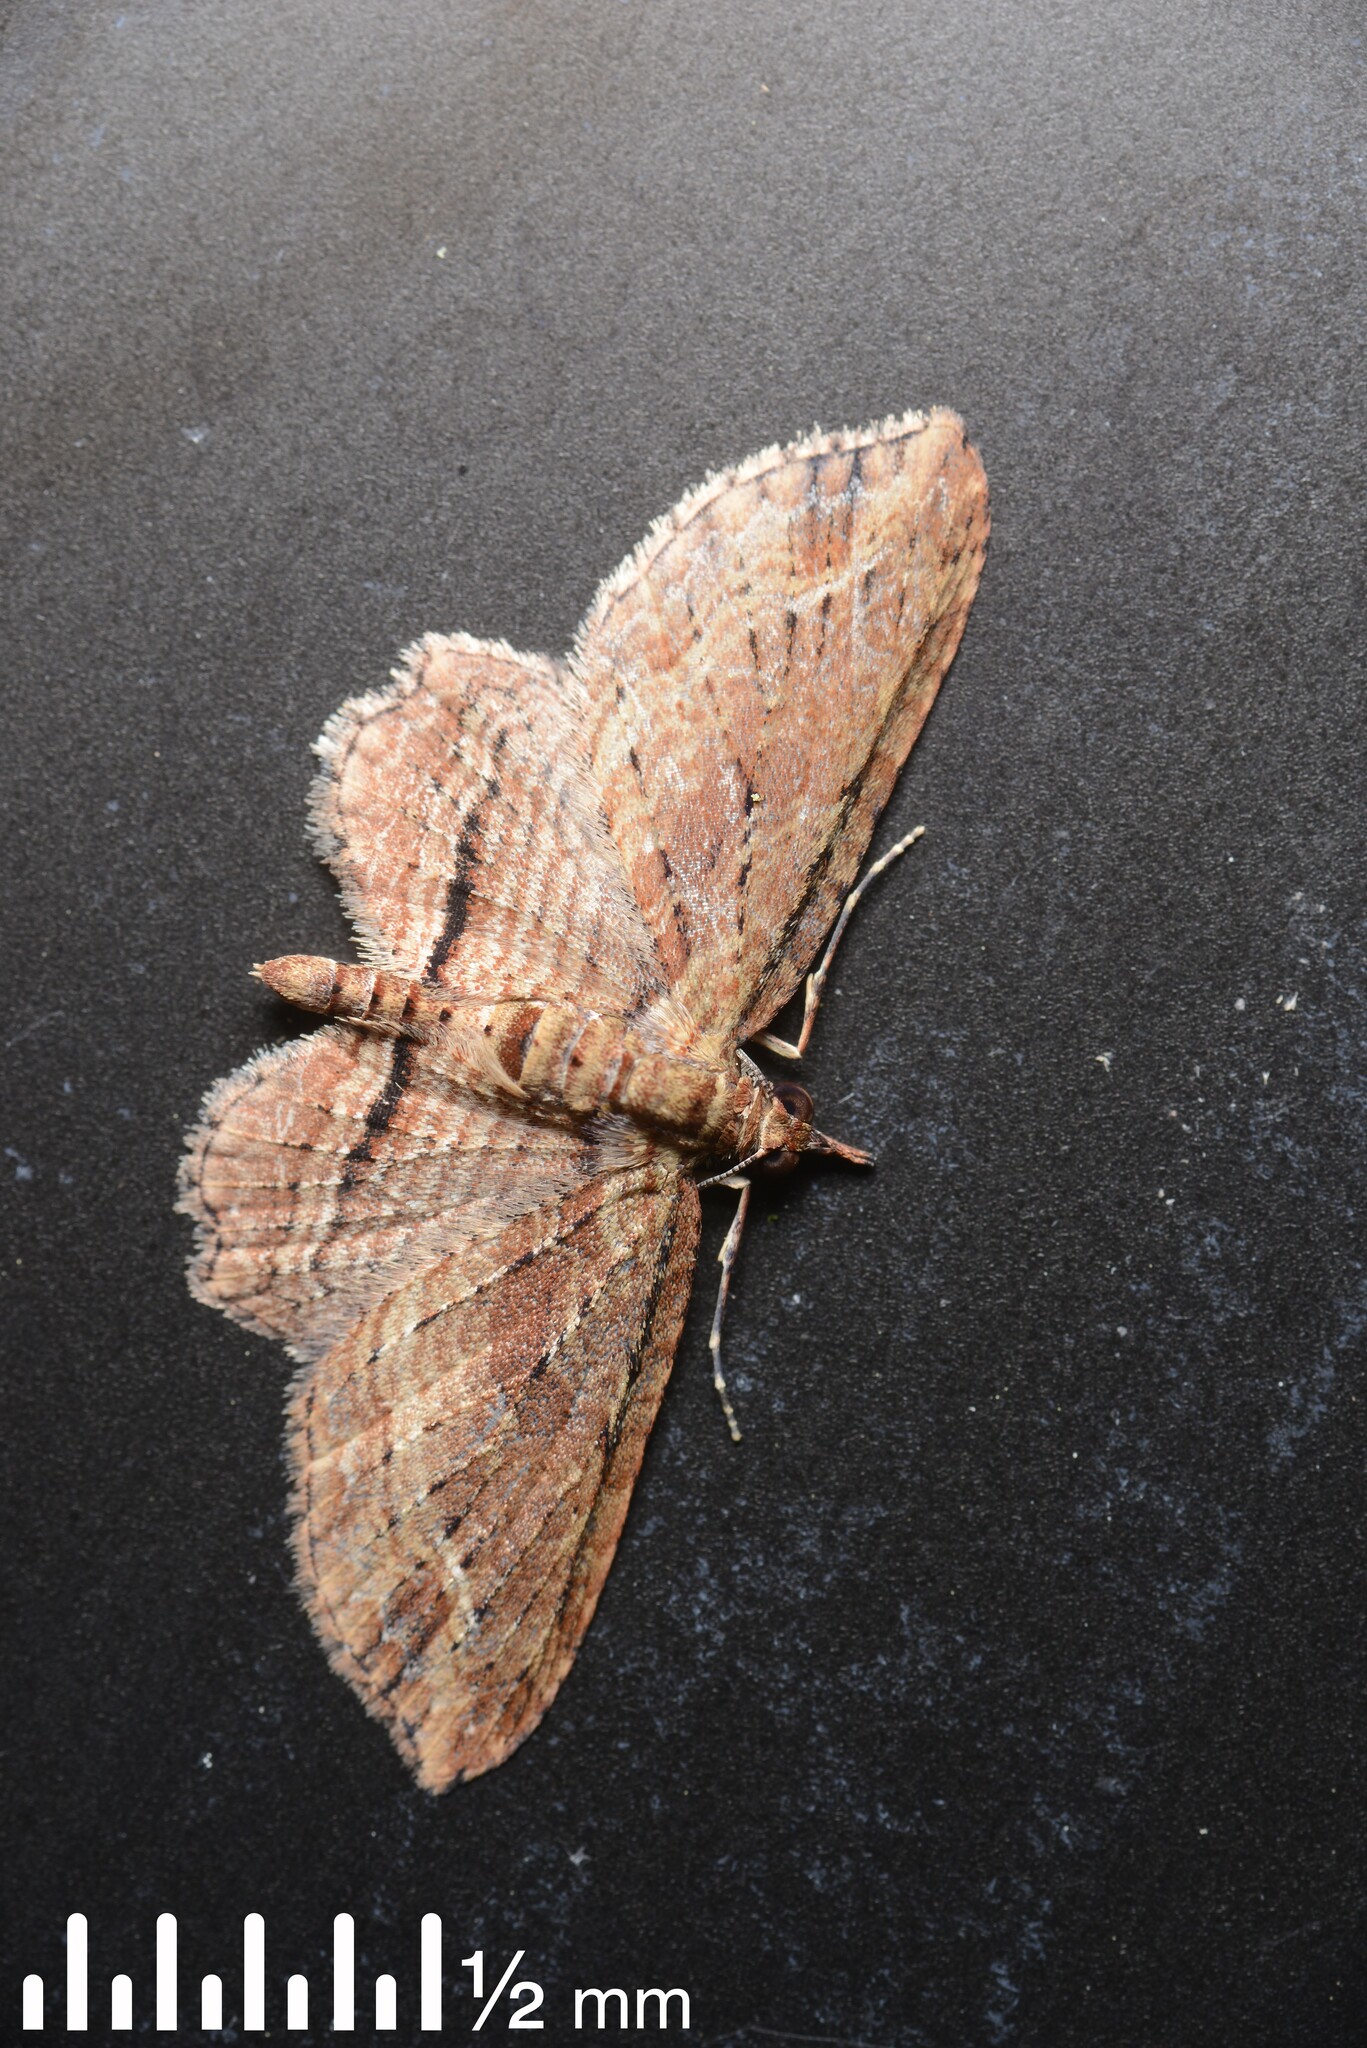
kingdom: Animalia
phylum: Arthropoda
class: Insecta
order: Lepidoptera
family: Geometridae
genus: Chloroclystis
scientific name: Chloroclystis filata
